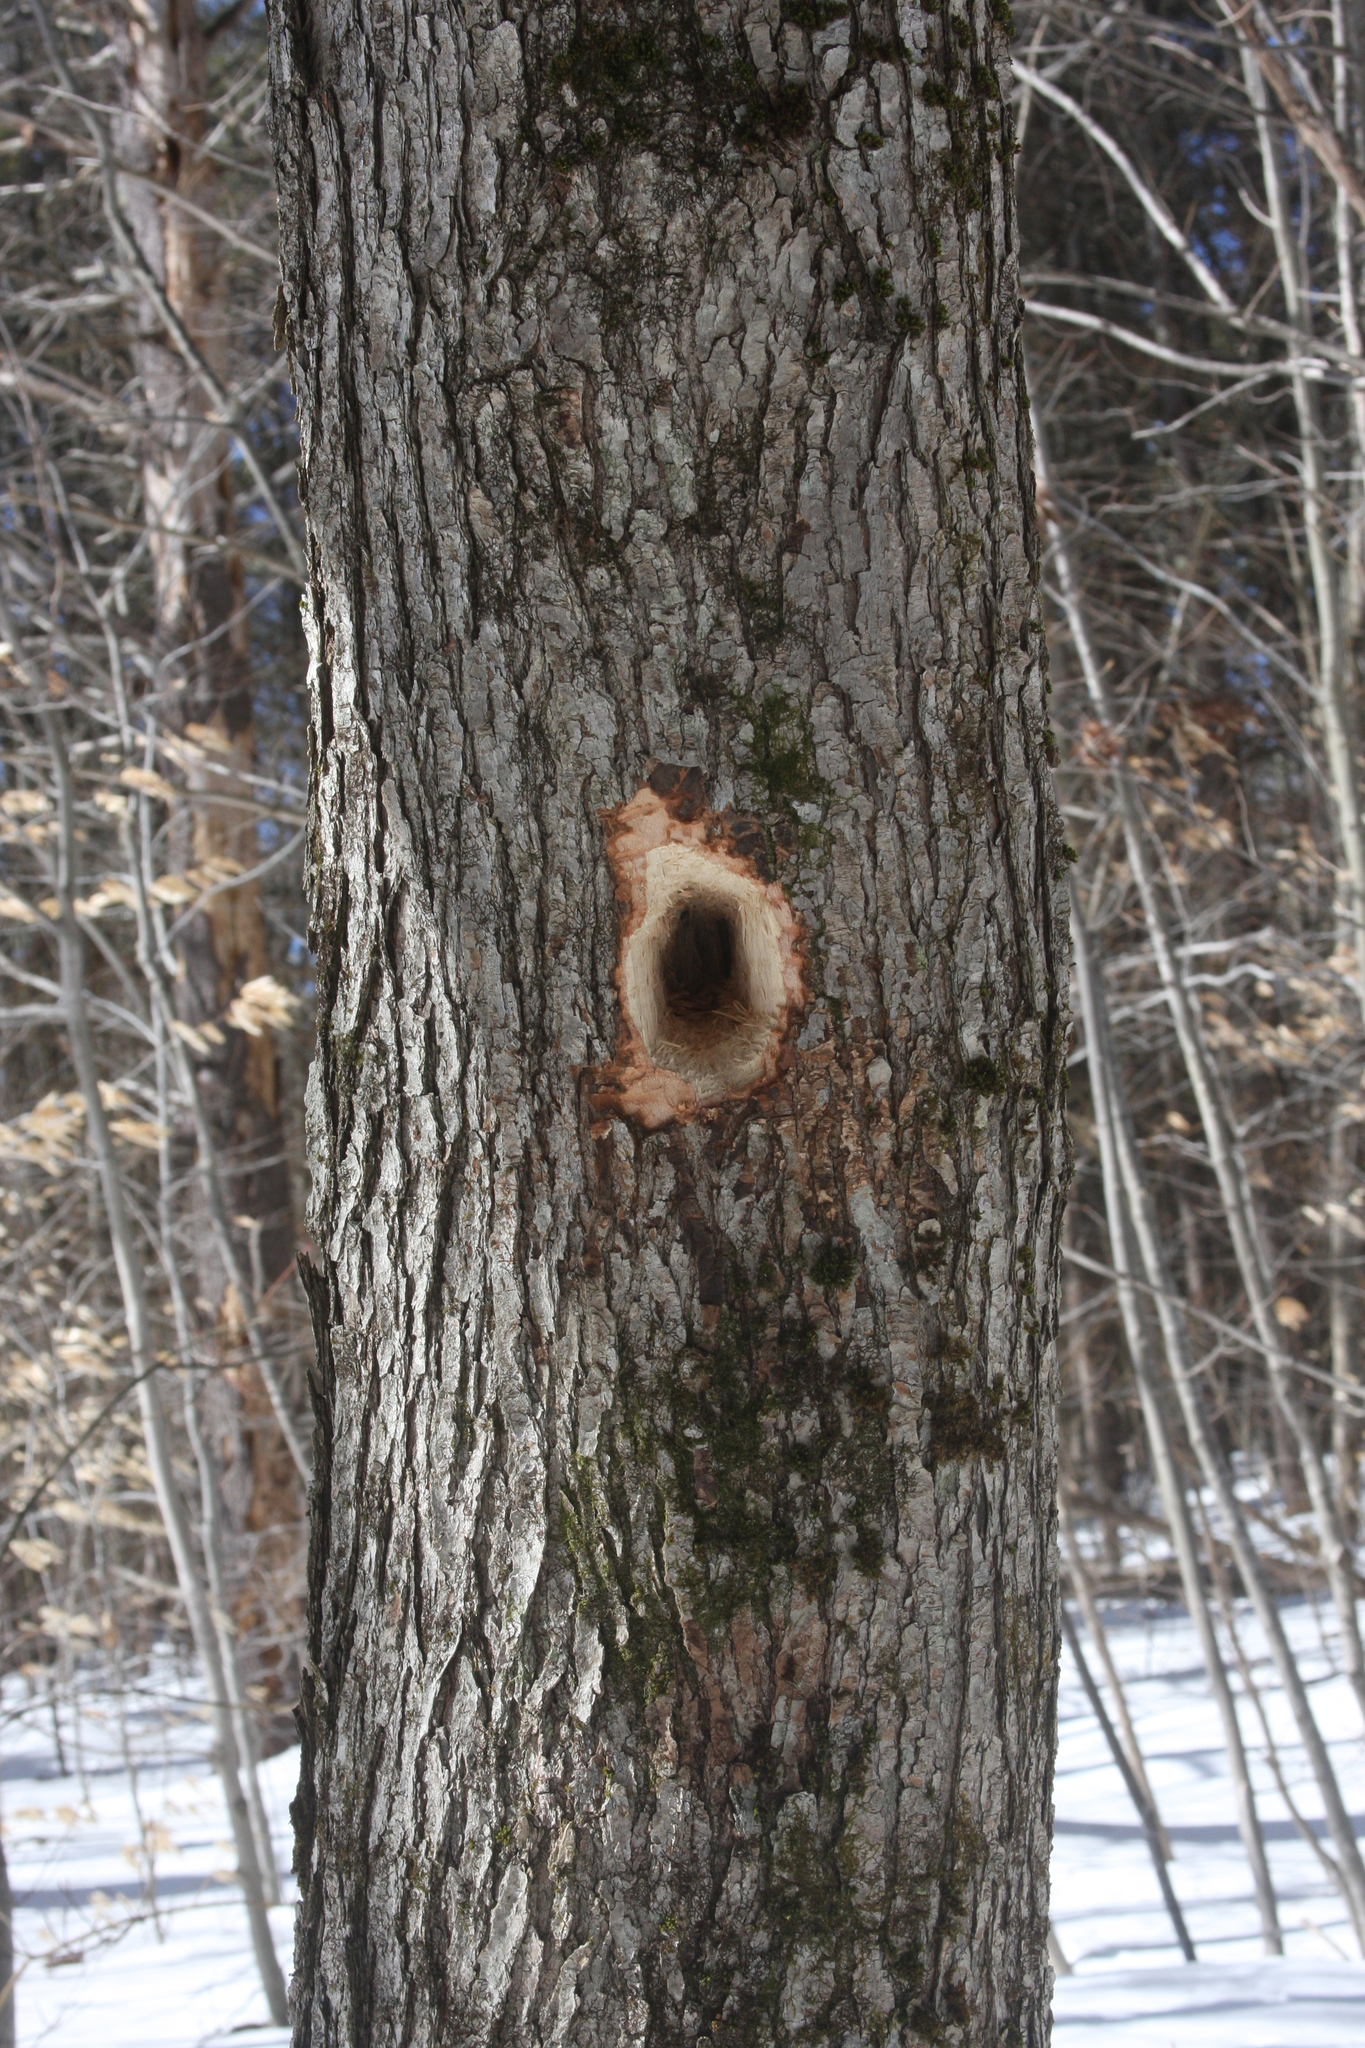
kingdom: Animalia
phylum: Chordata
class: Aves
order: Piciformes
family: Picidae
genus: Dryocopus
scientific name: Dryocopus pileatus
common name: Pileated woodpecker
